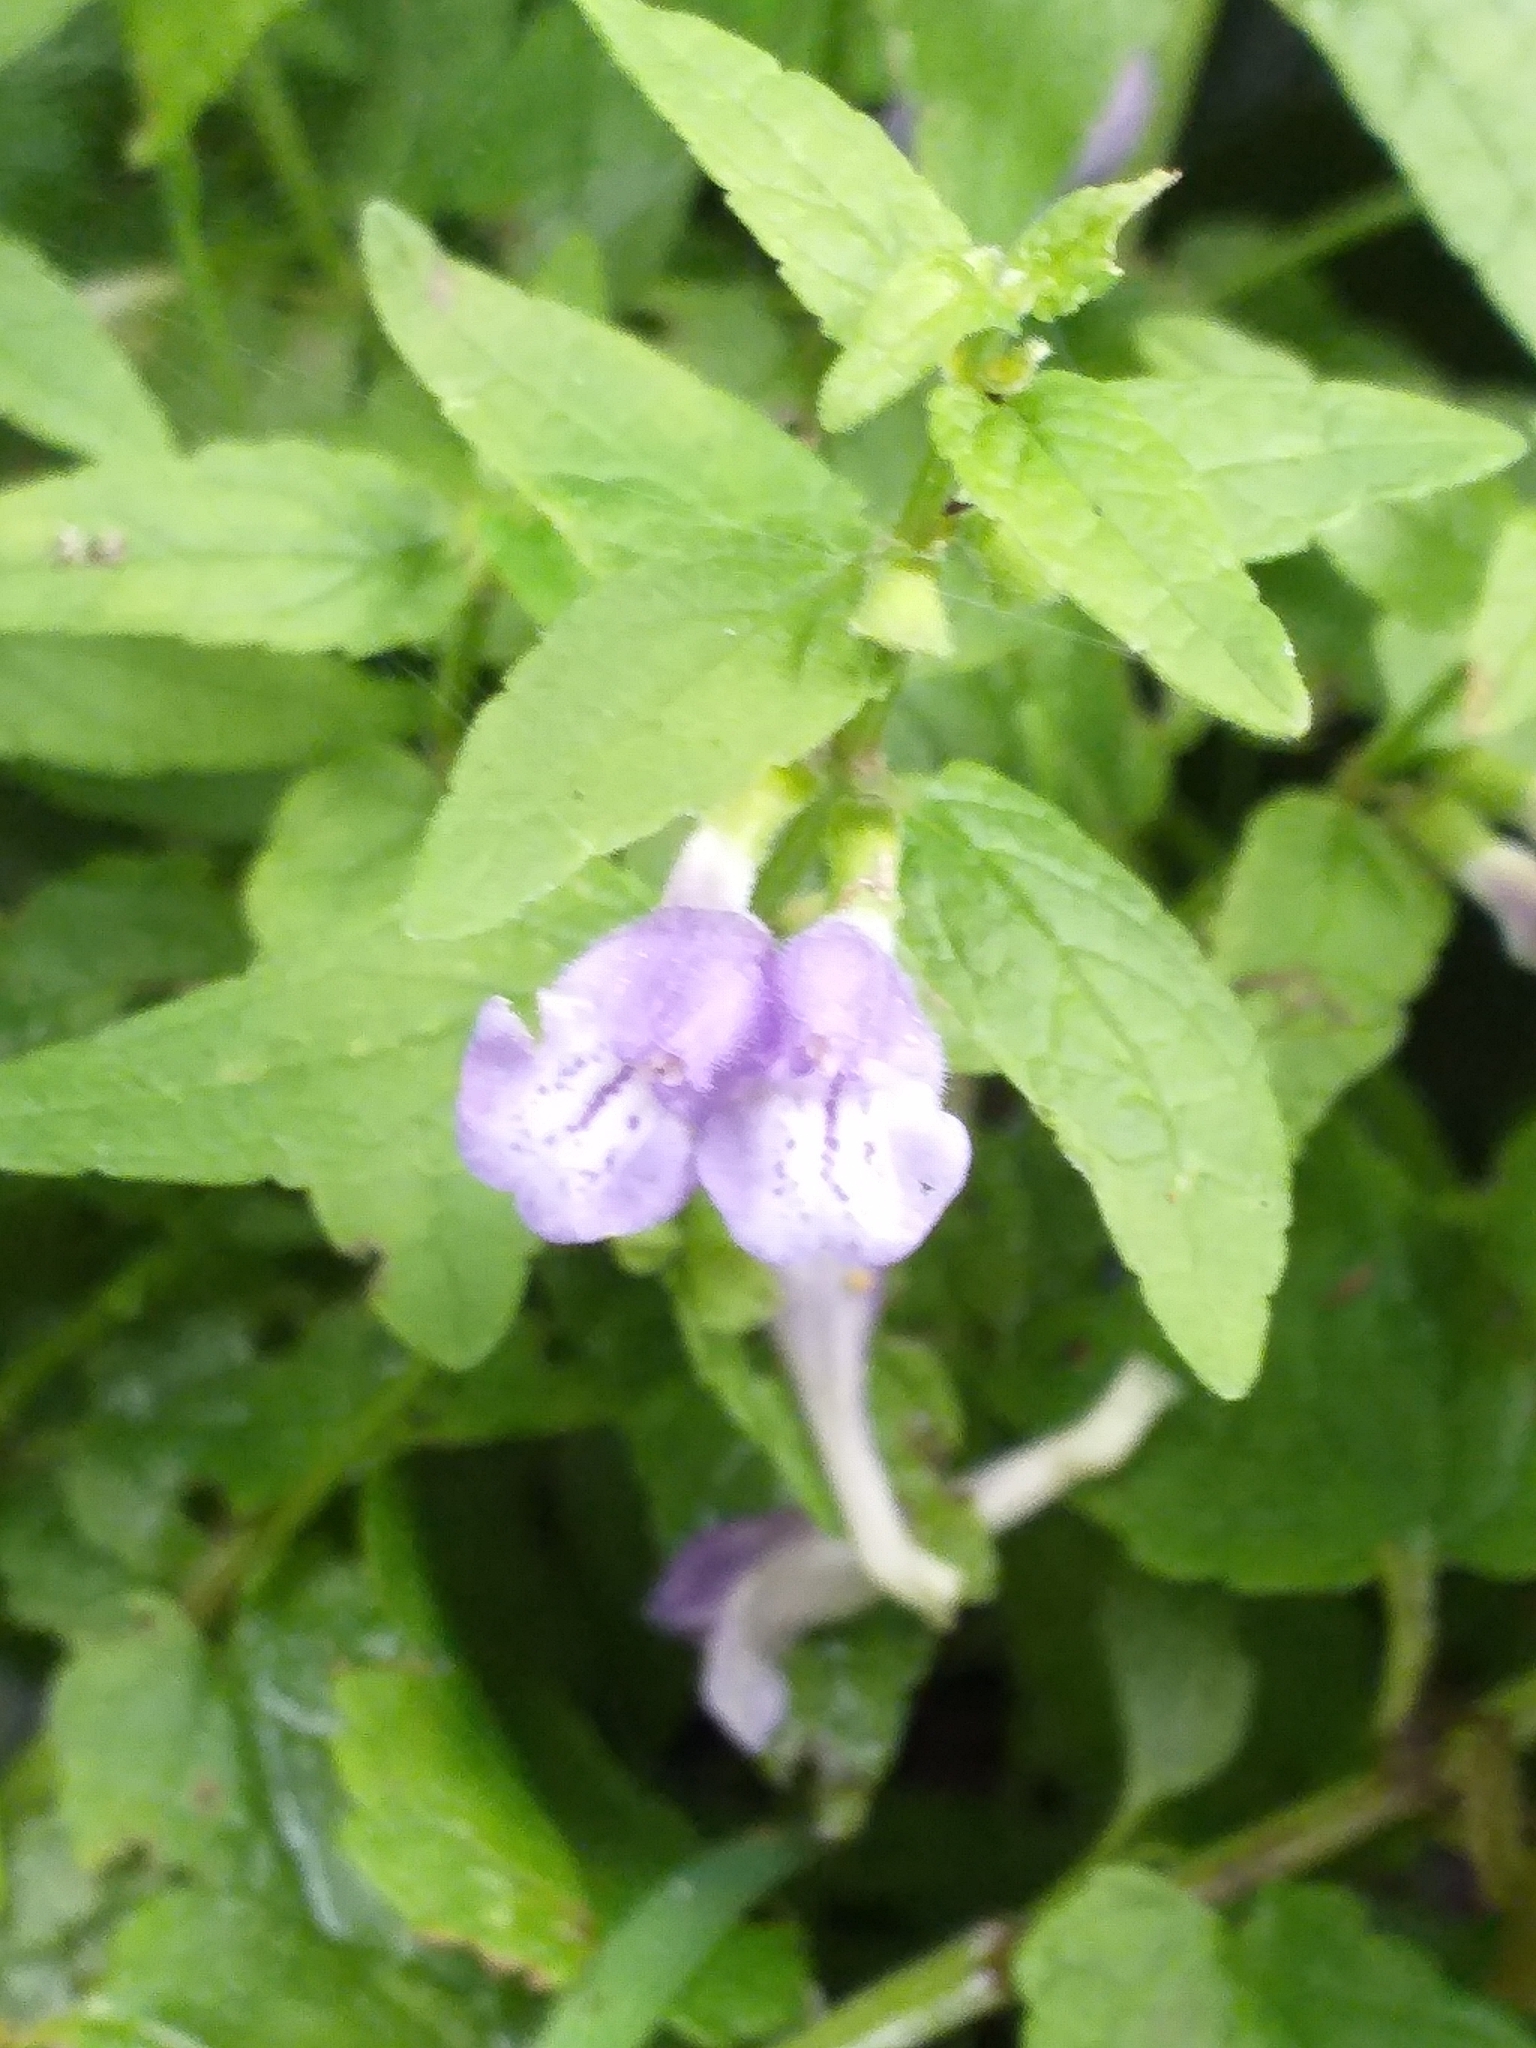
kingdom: Plantae
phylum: Tracheophyta
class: Magnoliopsida
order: Lamiales
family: Lamiaceae
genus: Scutellaria
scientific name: Scutellaria galericulata
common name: Skullcap
